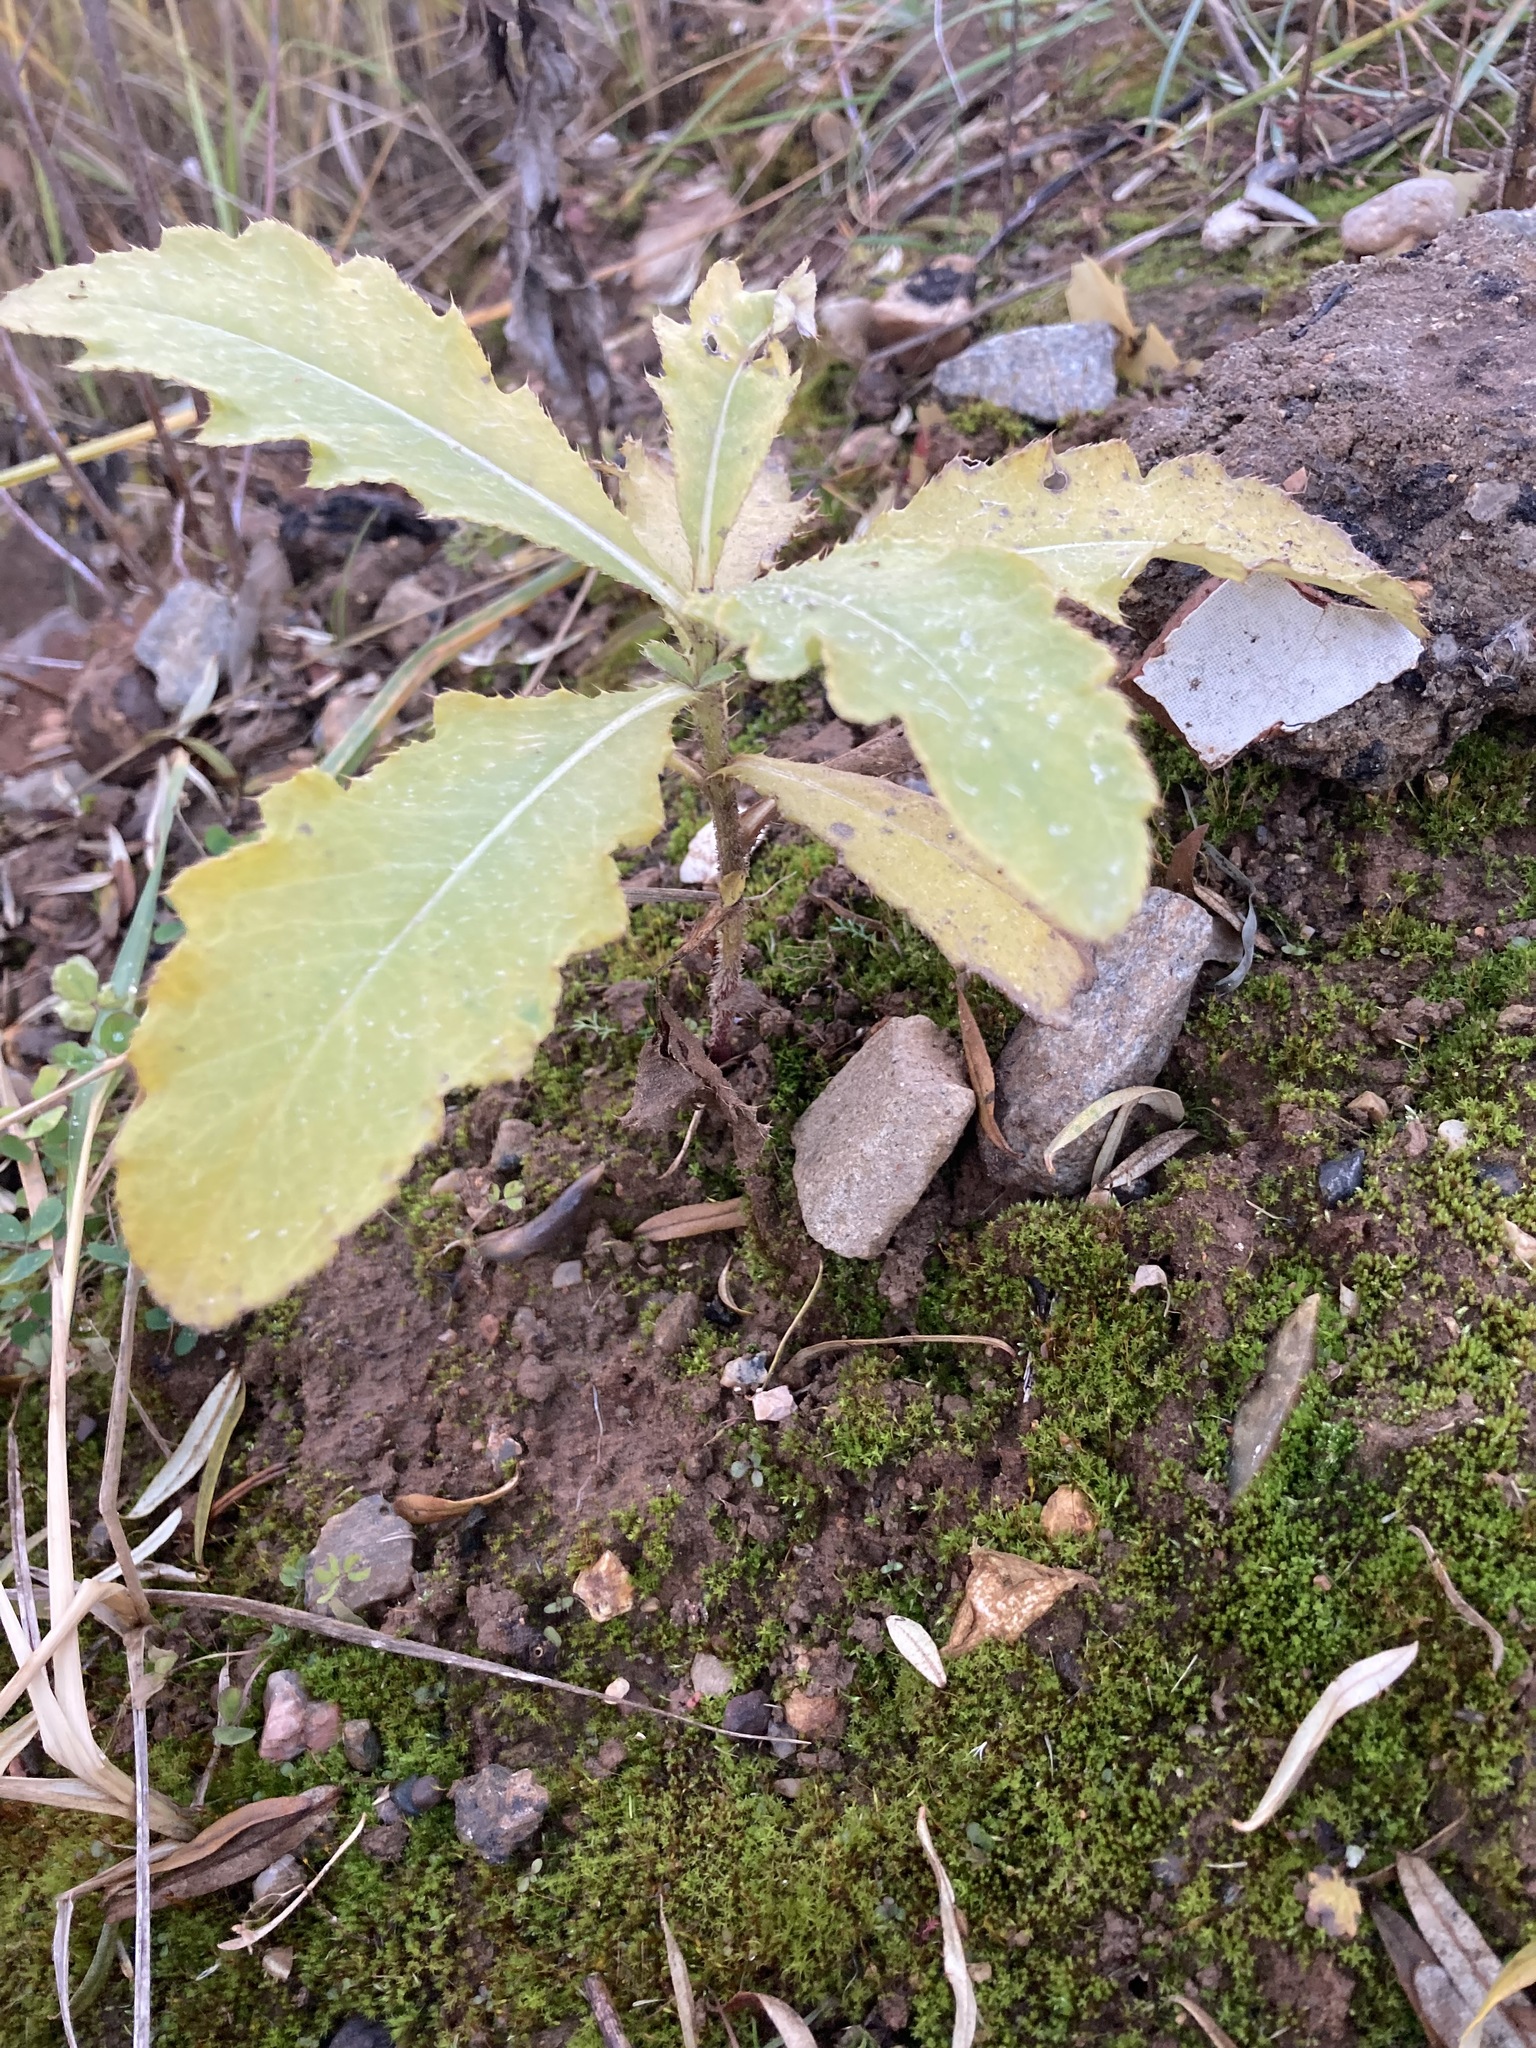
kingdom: Plantae
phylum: Tracheophyta
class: Magnoliopsida
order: Asterales
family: Asteraceae
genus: Cirsium
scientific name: Cirsium arvense
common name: Creeping thistle
